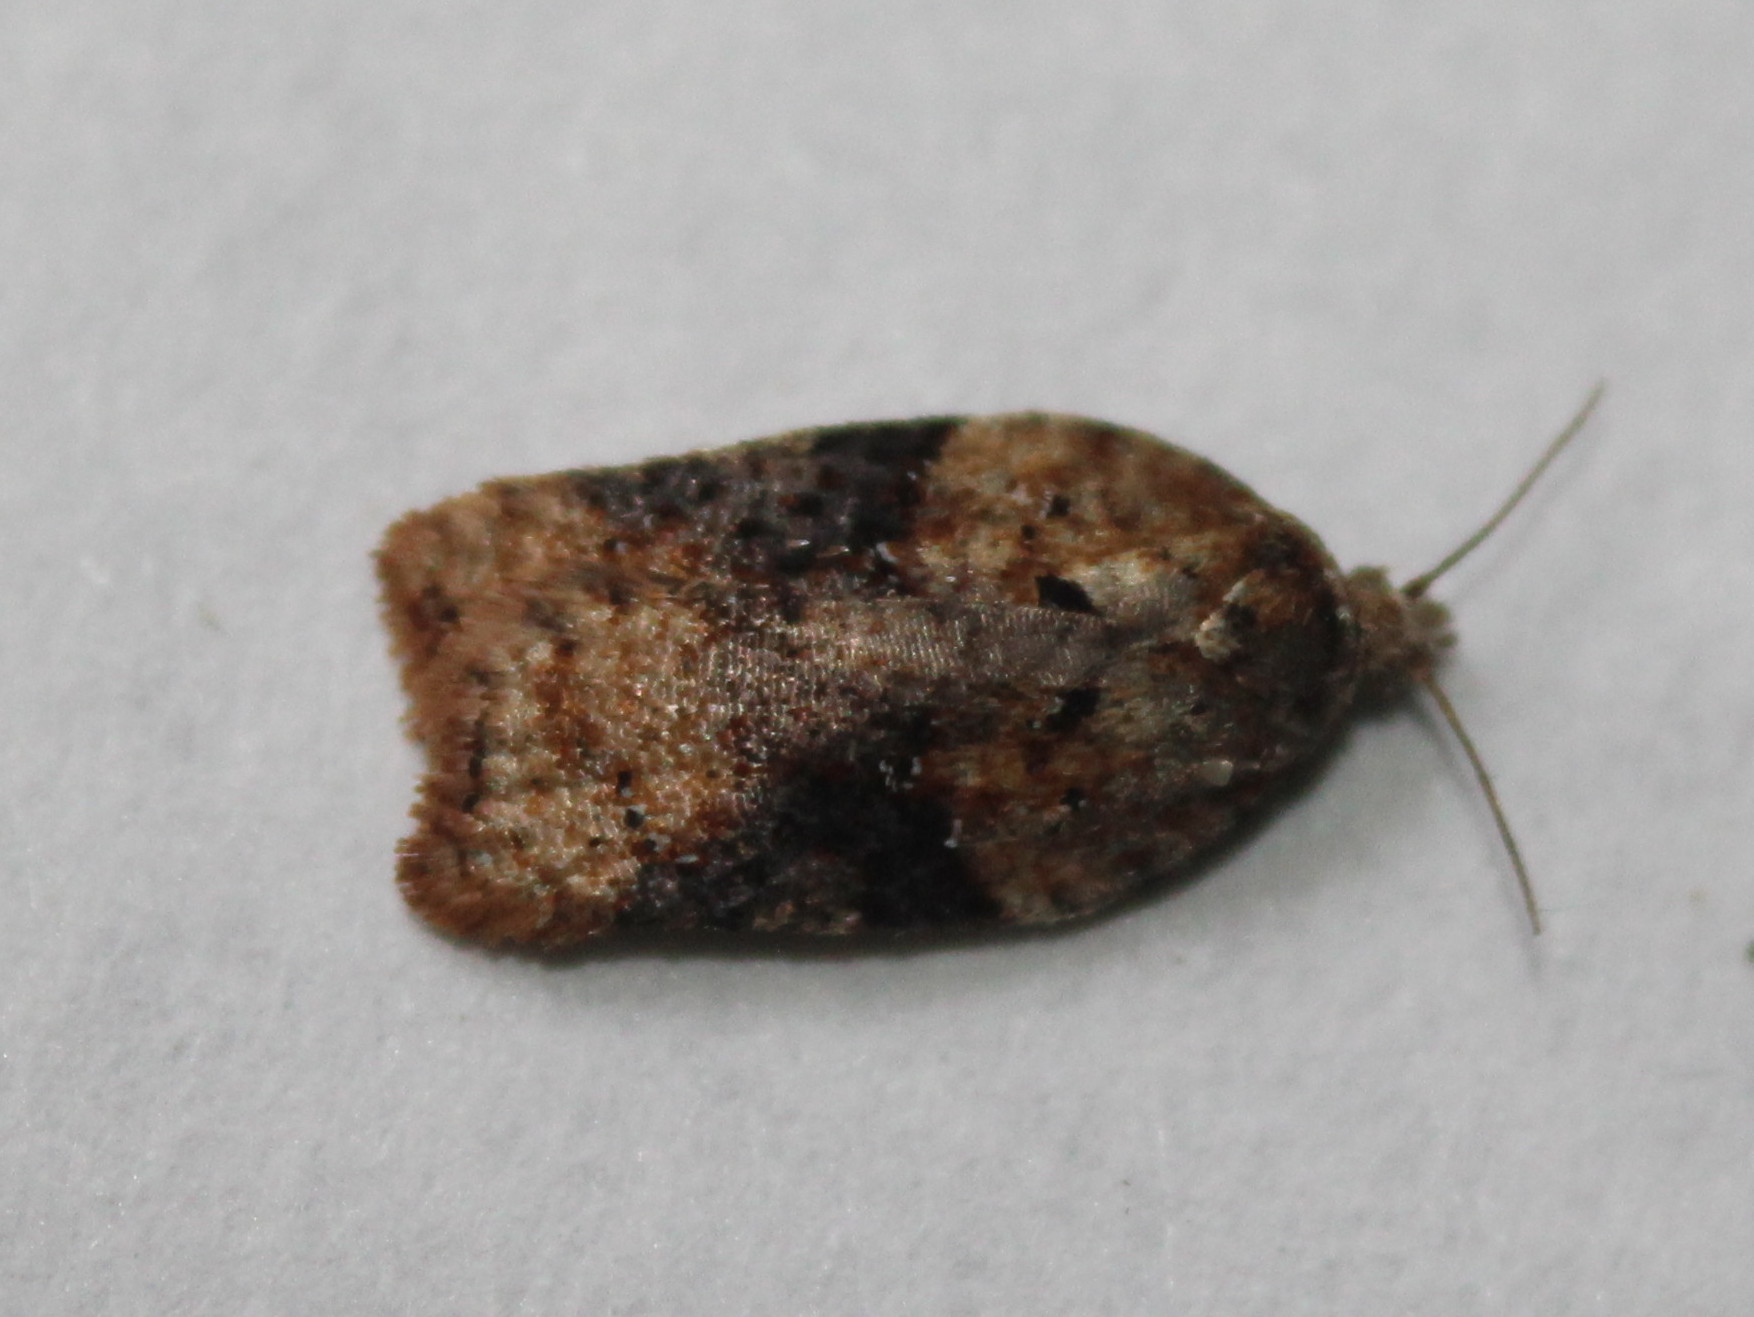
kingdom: Animalia
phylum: Arthropoda
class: Insecta
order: Lepidoptera
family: Tortricidae
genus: Acleris
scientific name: Acleris braunana
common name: Alder leafroller
